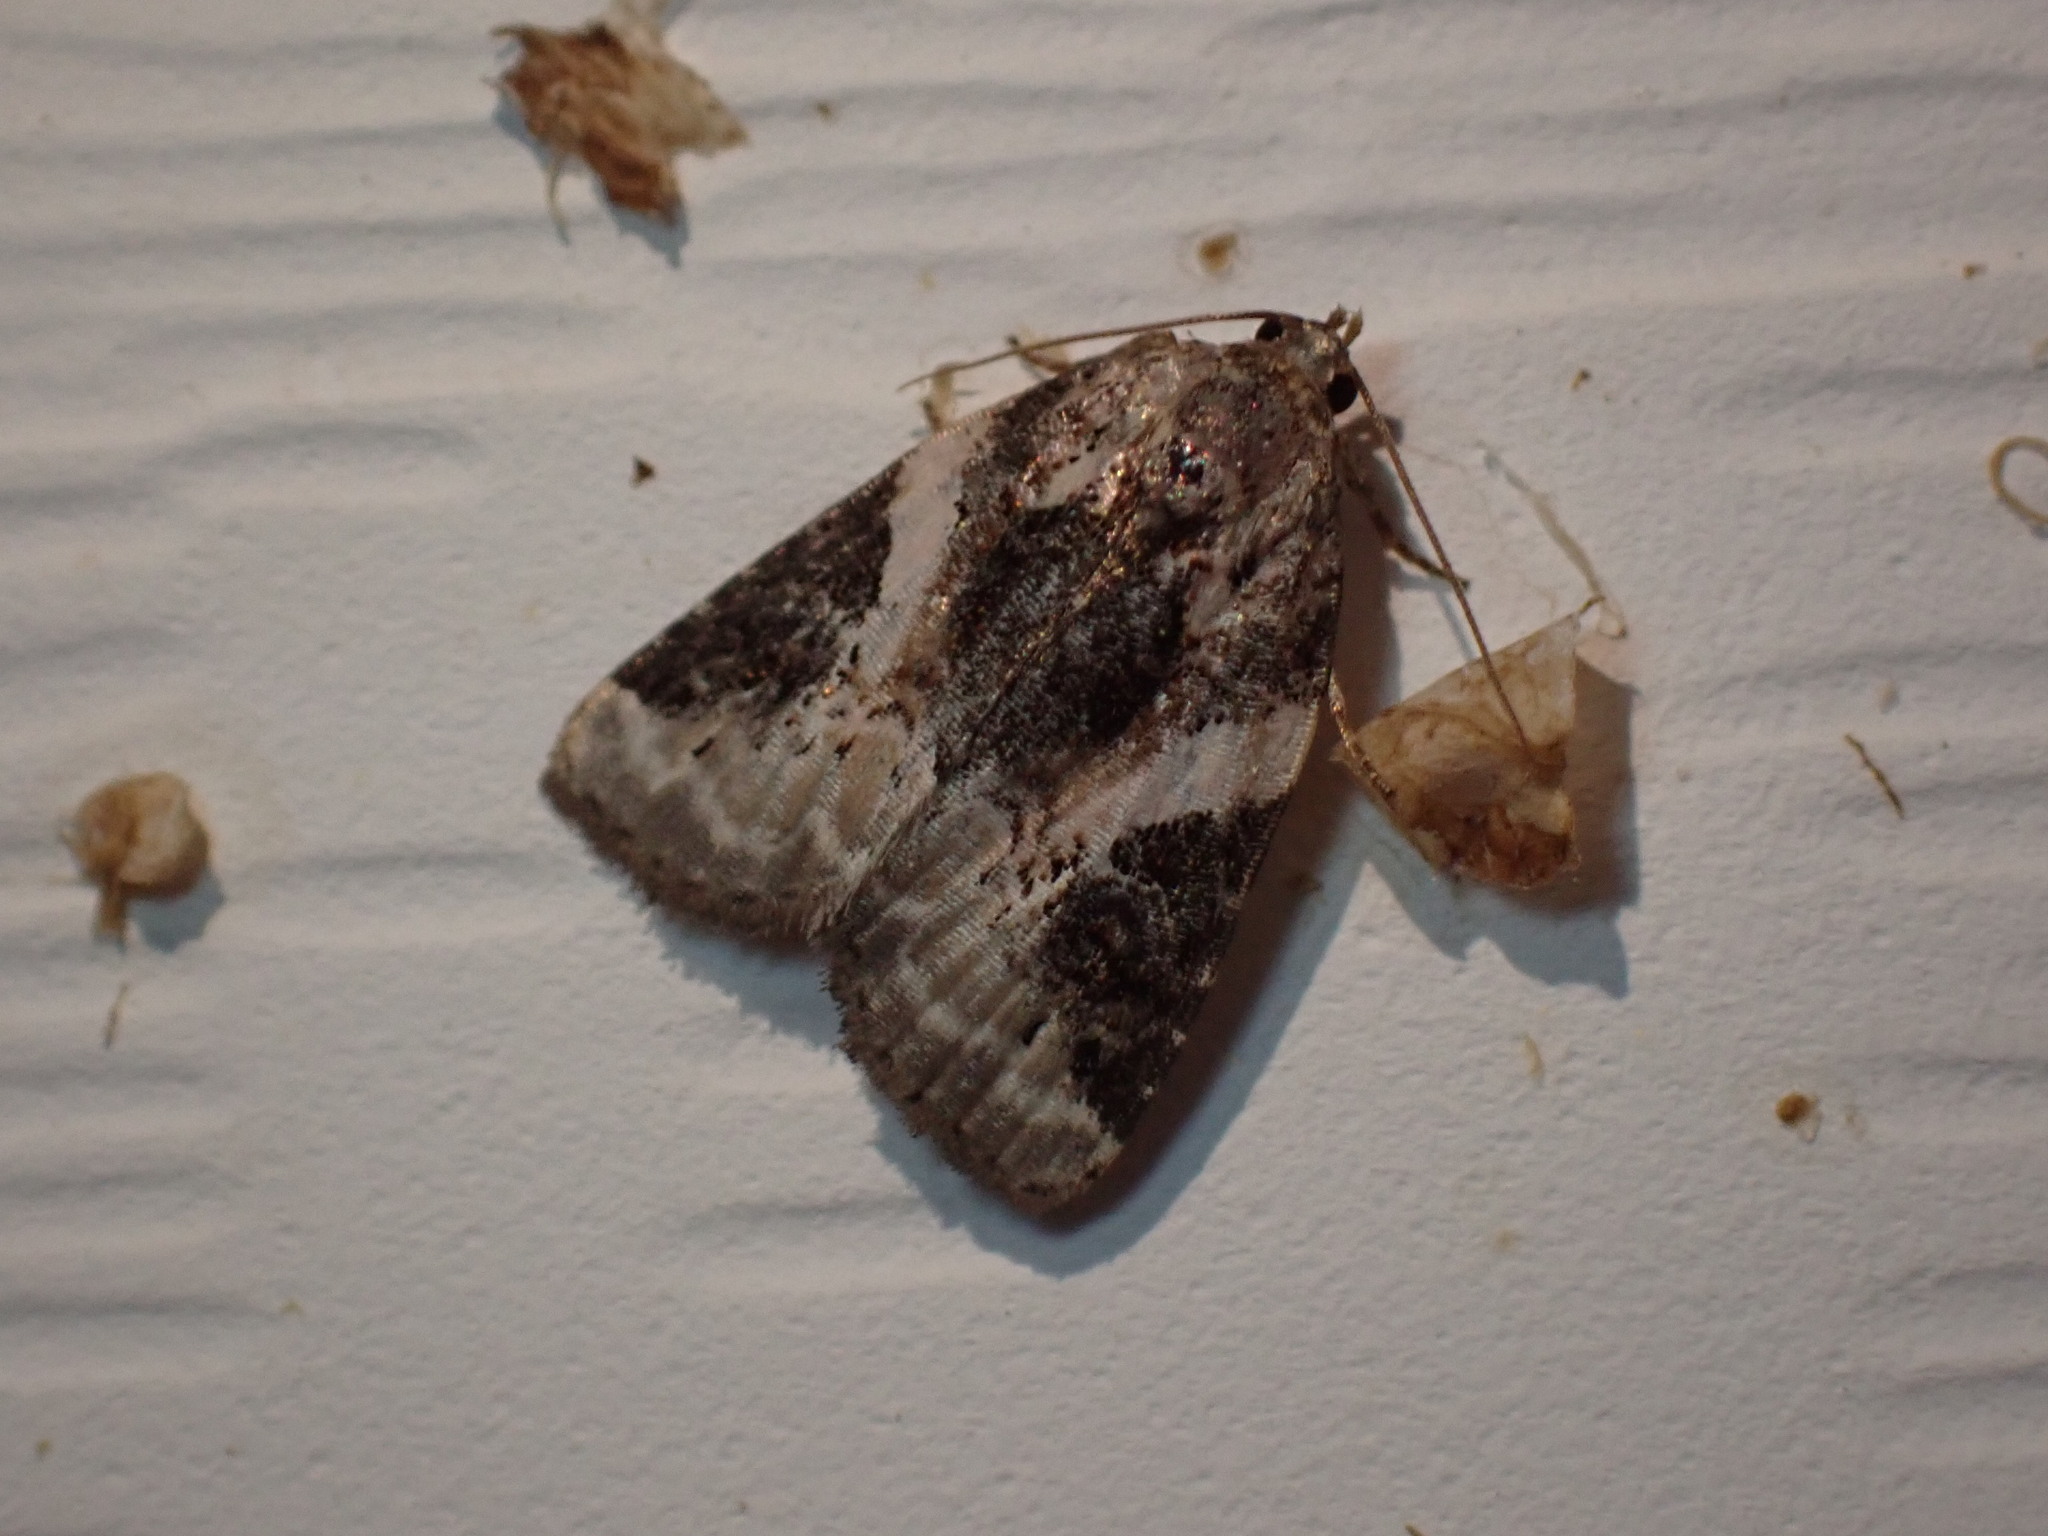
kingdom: Animalia
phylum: Arthropoda
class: Insecta
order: Lepidoptera
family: Noctuidae
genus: Pseudeustrotia
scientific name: Pseudeustrotia carneola
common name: Pink-barred lithacodia moth
